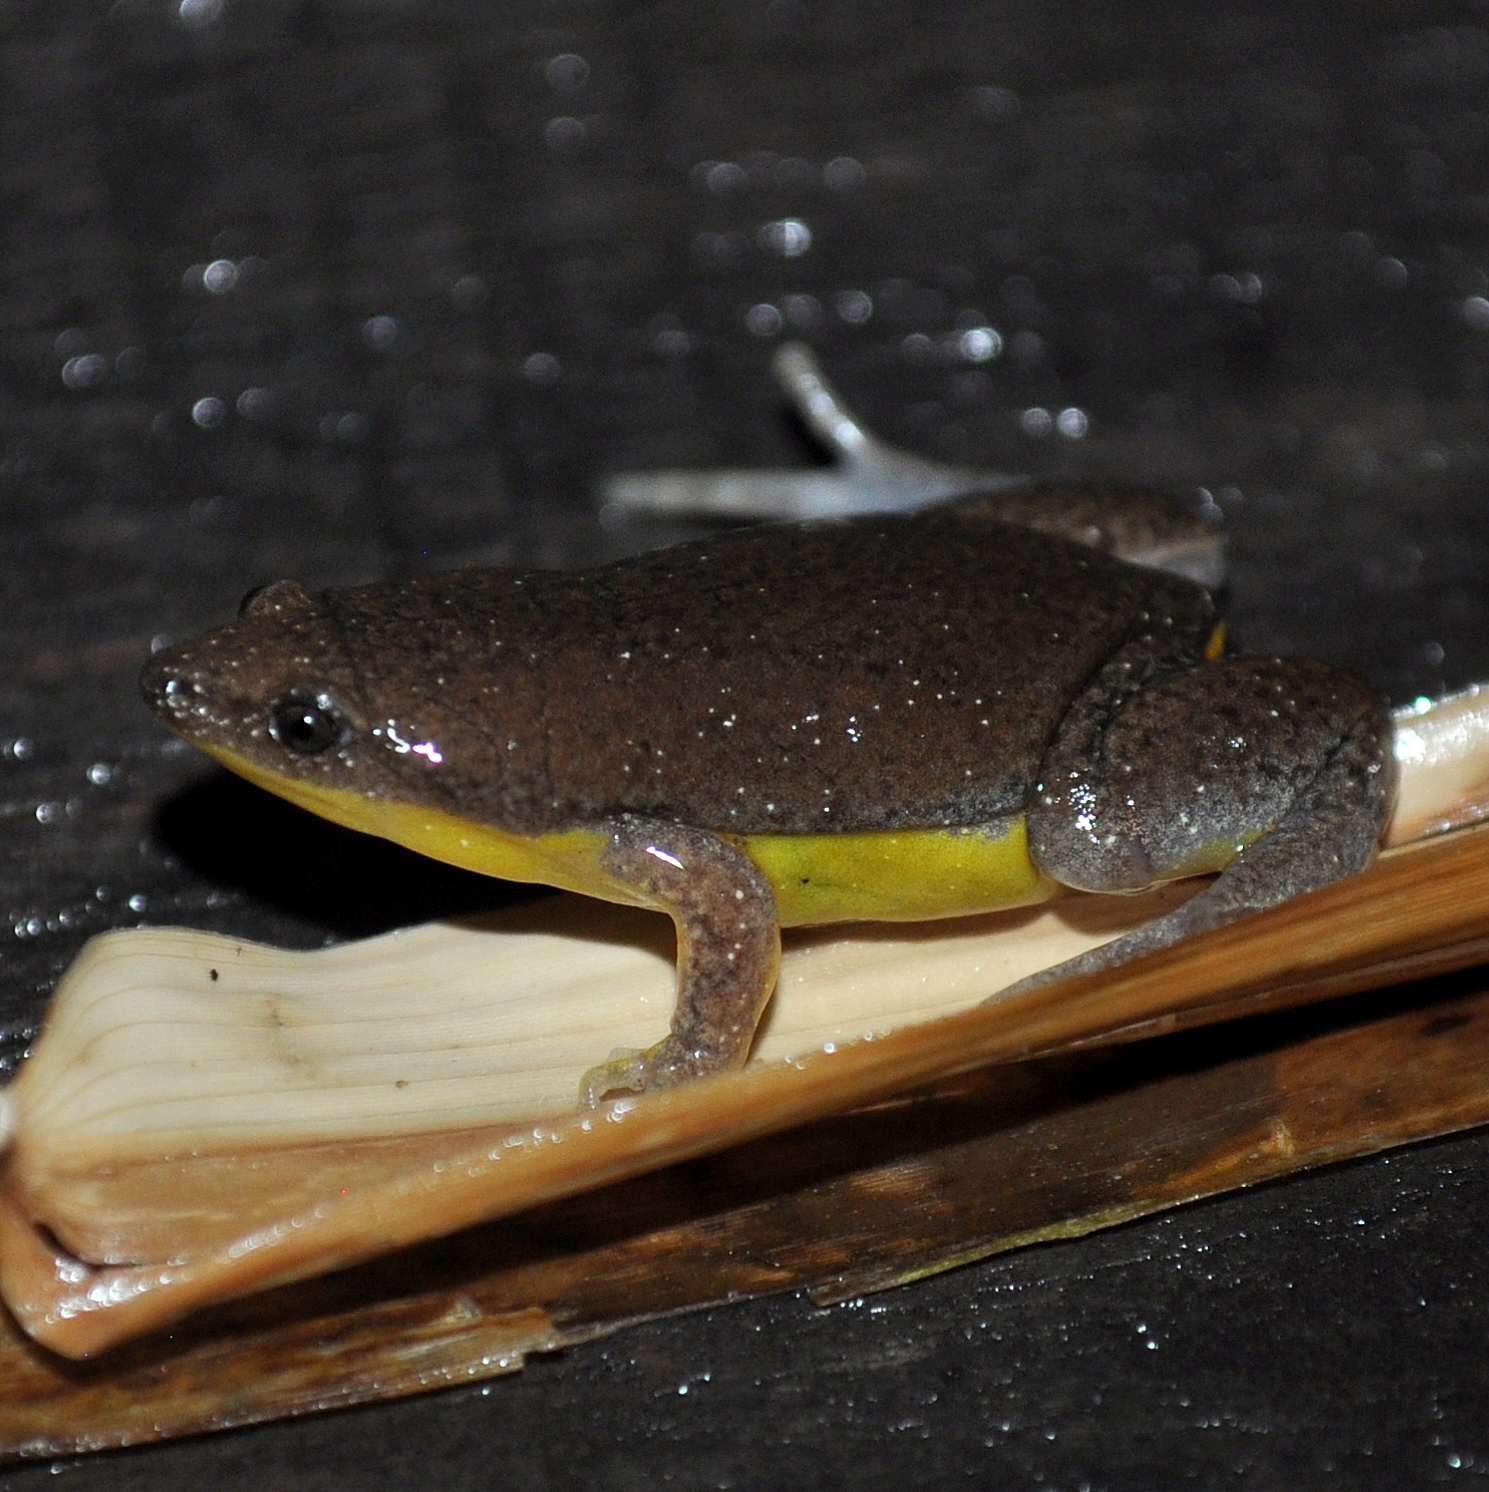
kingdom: Animalia
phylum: Chordata
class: Amphibia
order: Anura
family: Microhylidae
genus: Elachistocleis
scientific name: Elachistocleis bicolor
